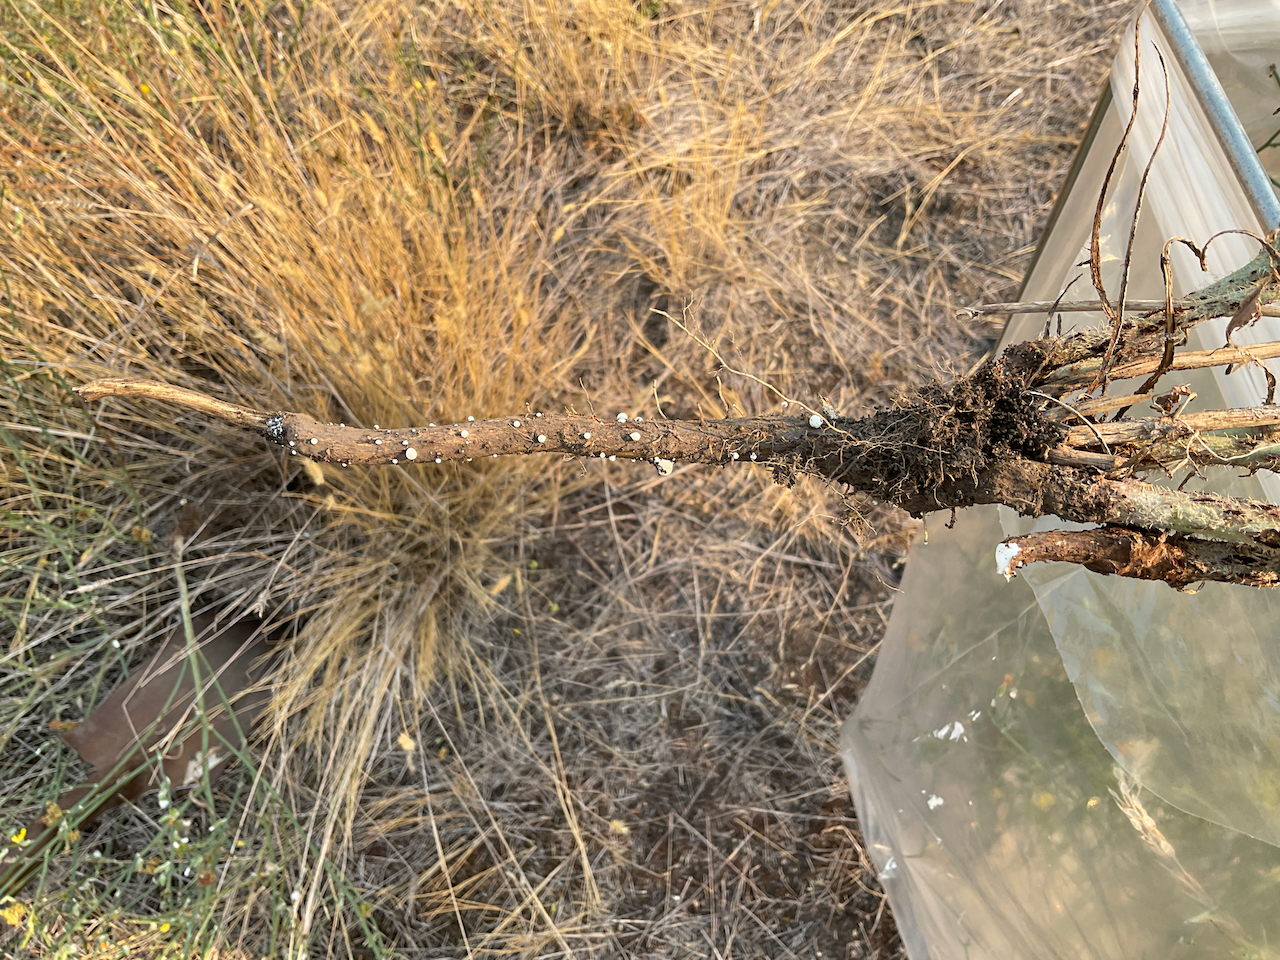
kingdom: Plantae
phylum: Tracheophyta
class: Magnoliopsida
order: Asterales
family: Asteraceae
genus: Chondrilla
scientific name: Chondrilla juncea
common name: Skeleton weed
